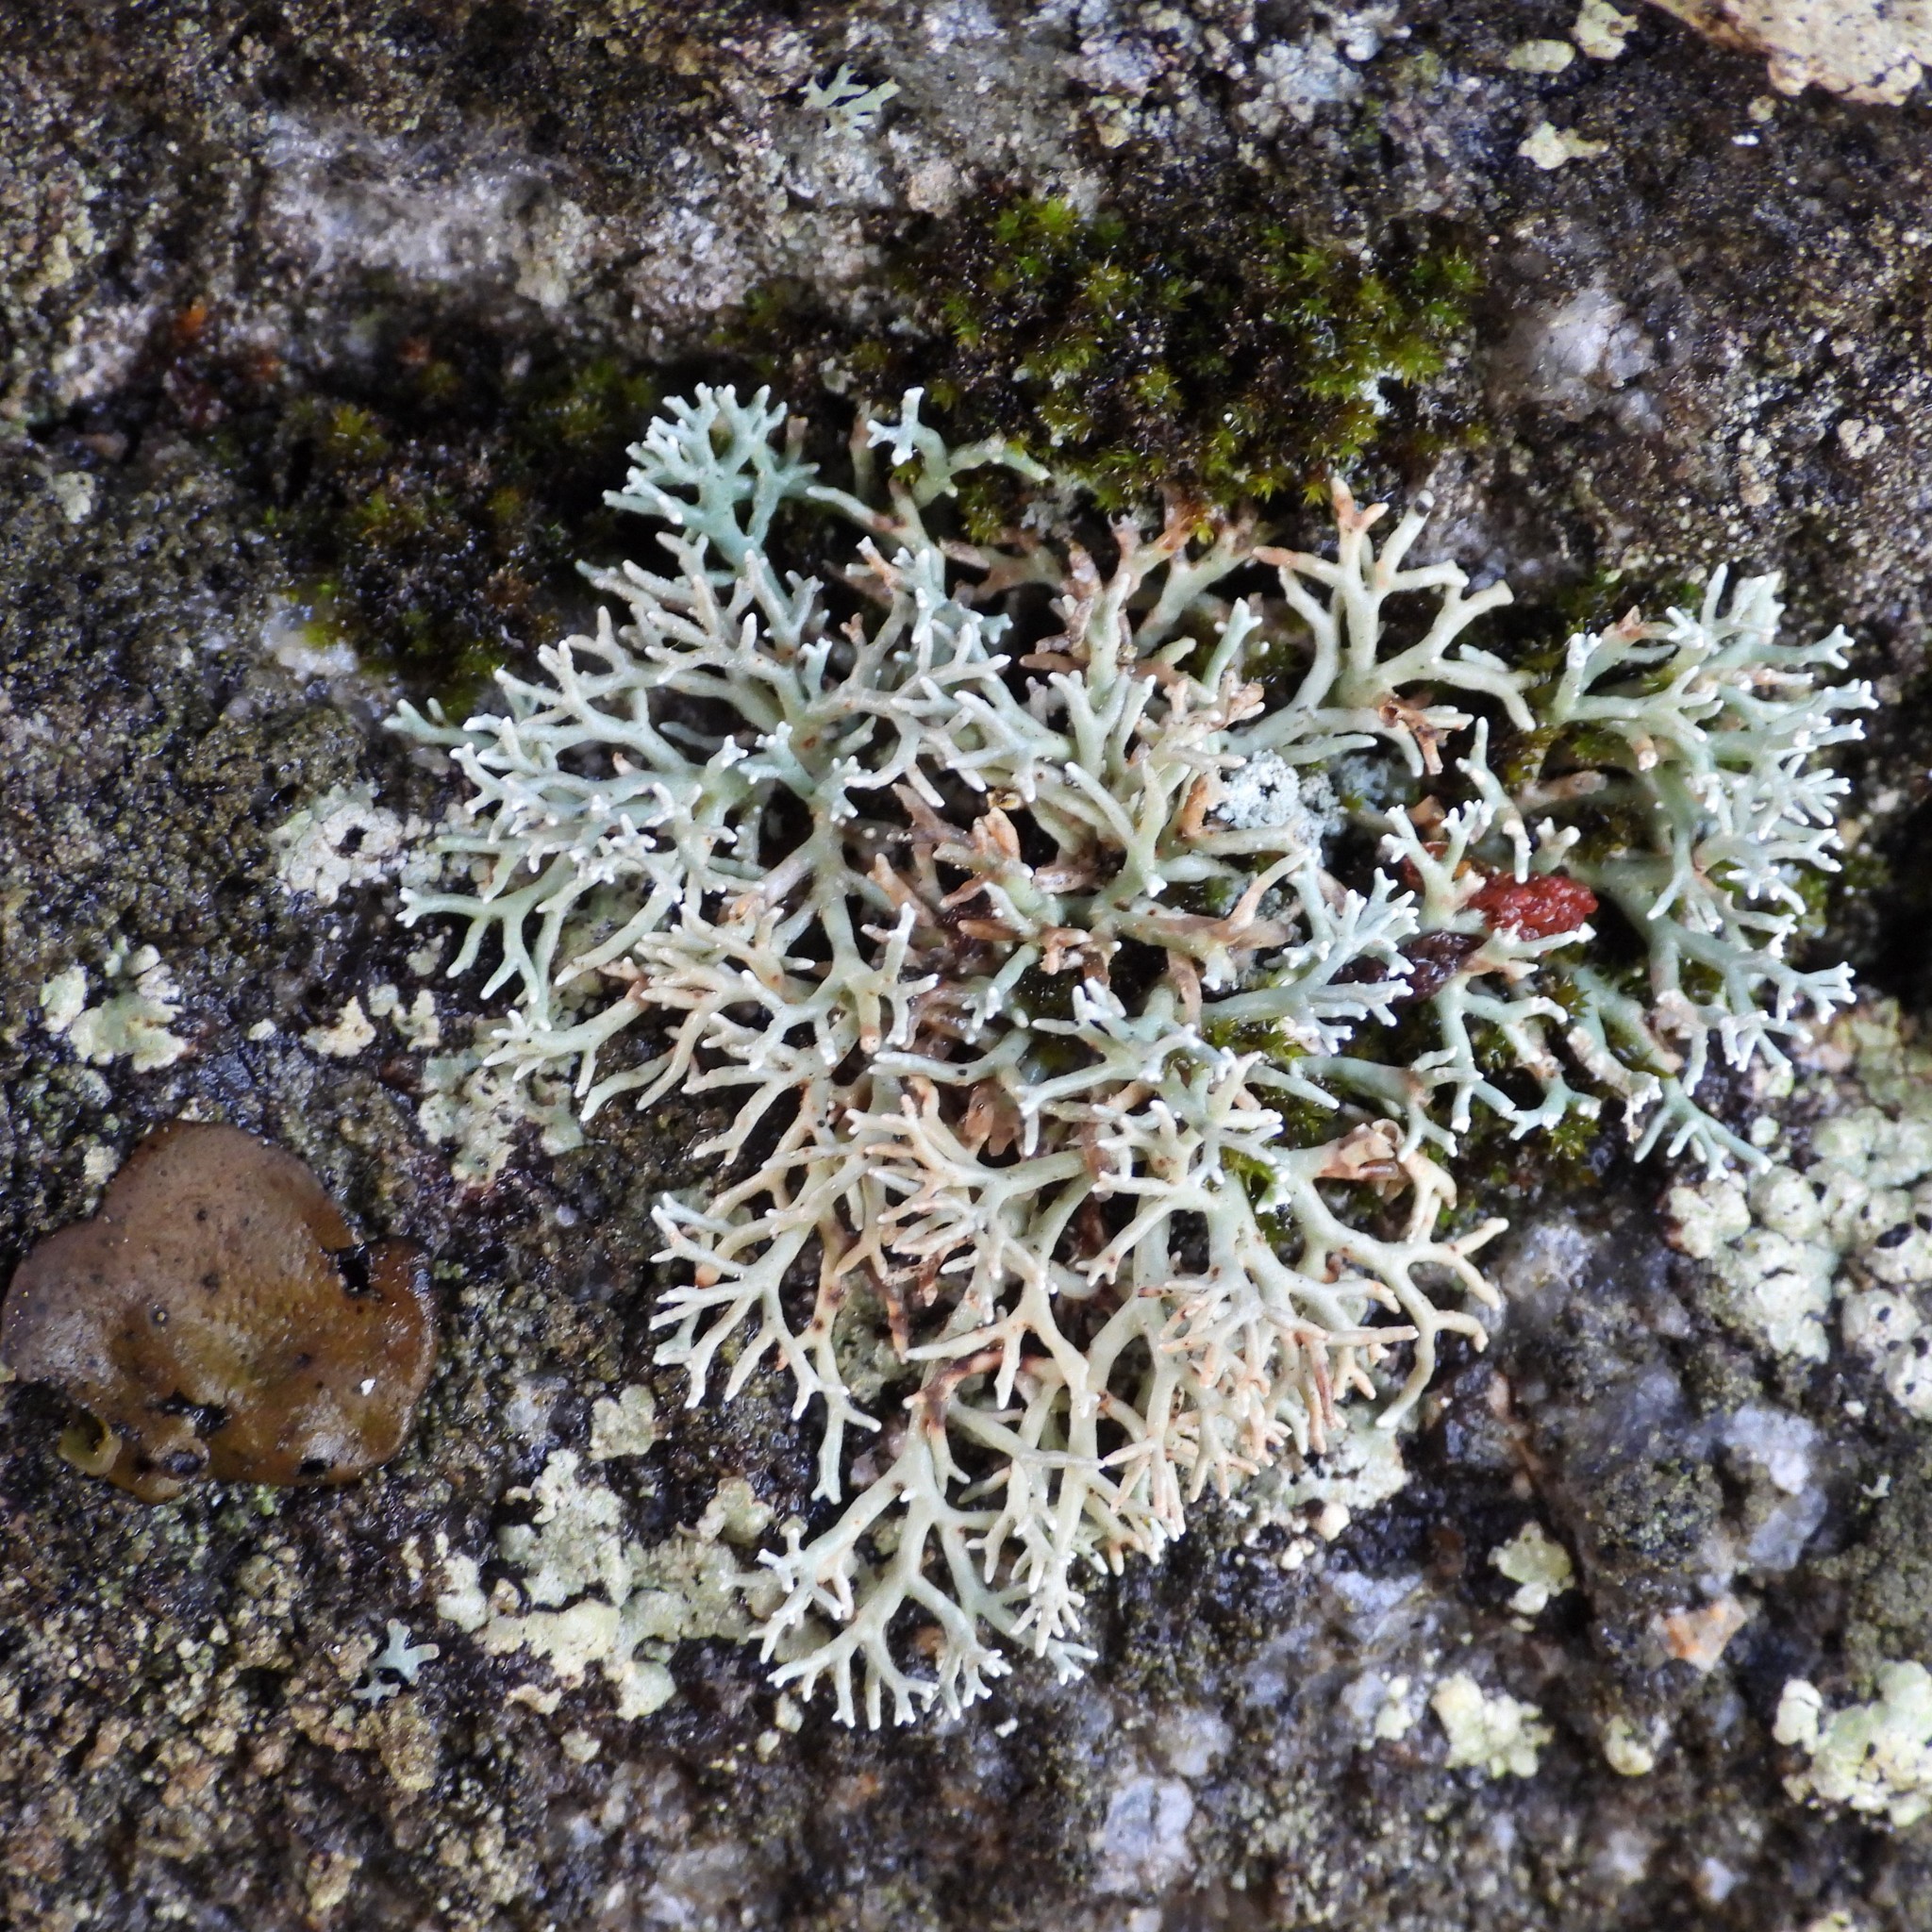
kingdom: Fungi
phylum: Ascomycota
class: Lecanoromycetes
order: Lecanorales
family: Sphaerophoraceae
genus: Sphaerophorus
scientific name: Sphaerophorus fragilis
